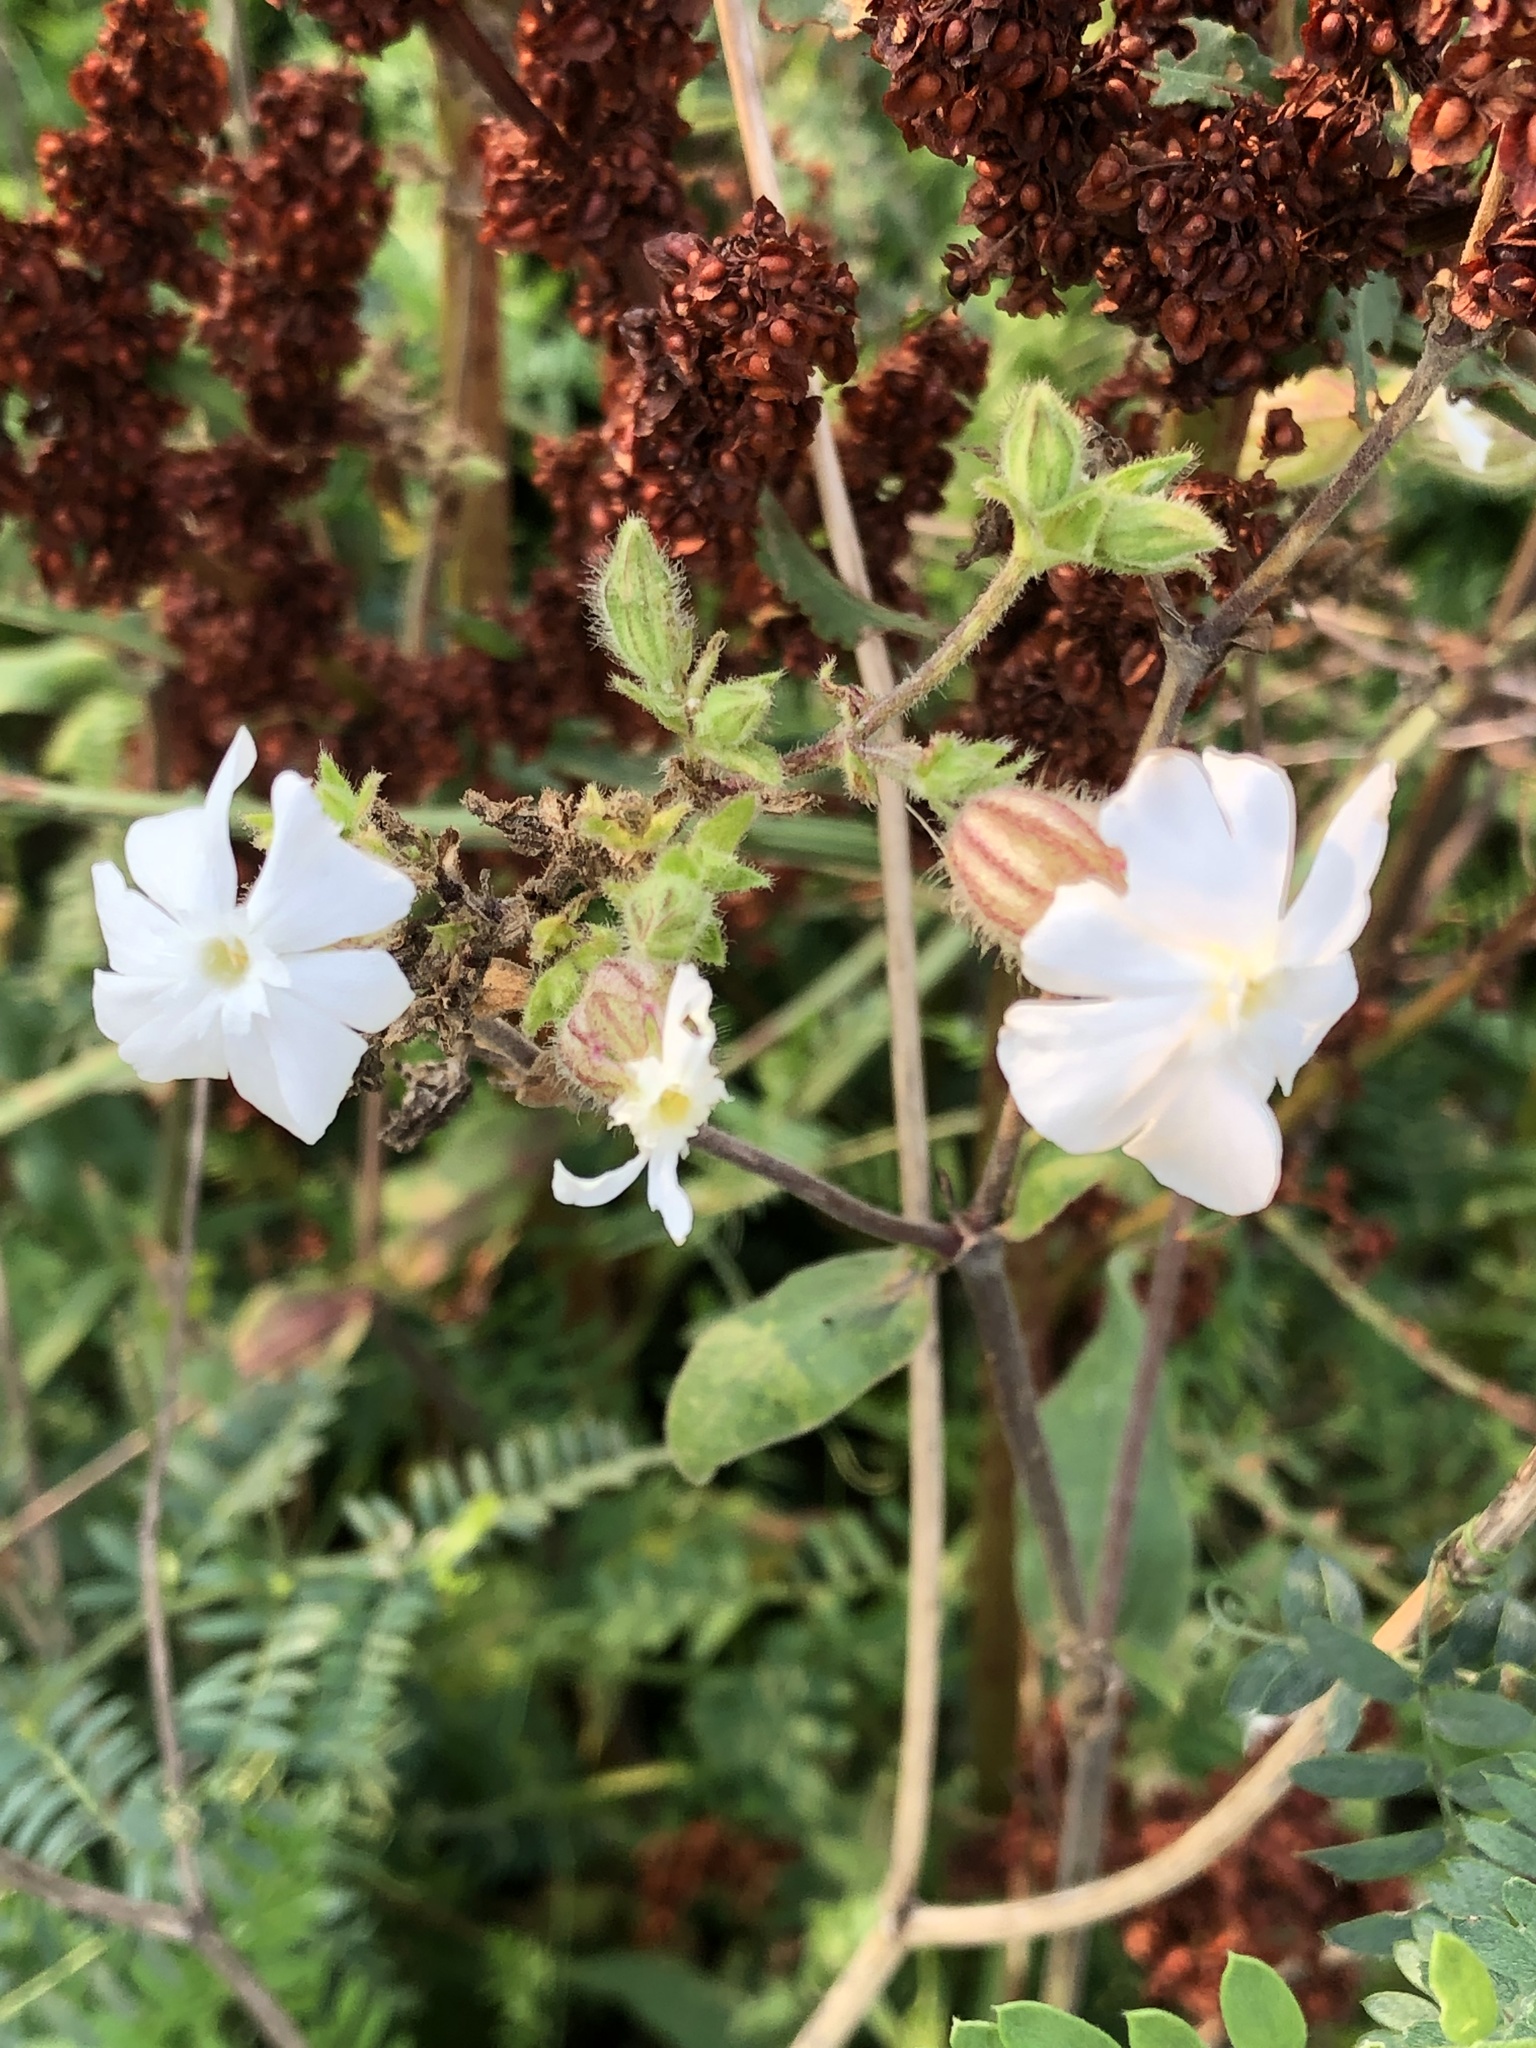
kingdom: Plantae
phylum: Tracheophyta
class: Magnoliopsida
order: Caryophyllales
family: Caryophyllaceae
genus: Silene
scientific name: Silene latifolia
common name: White campion
